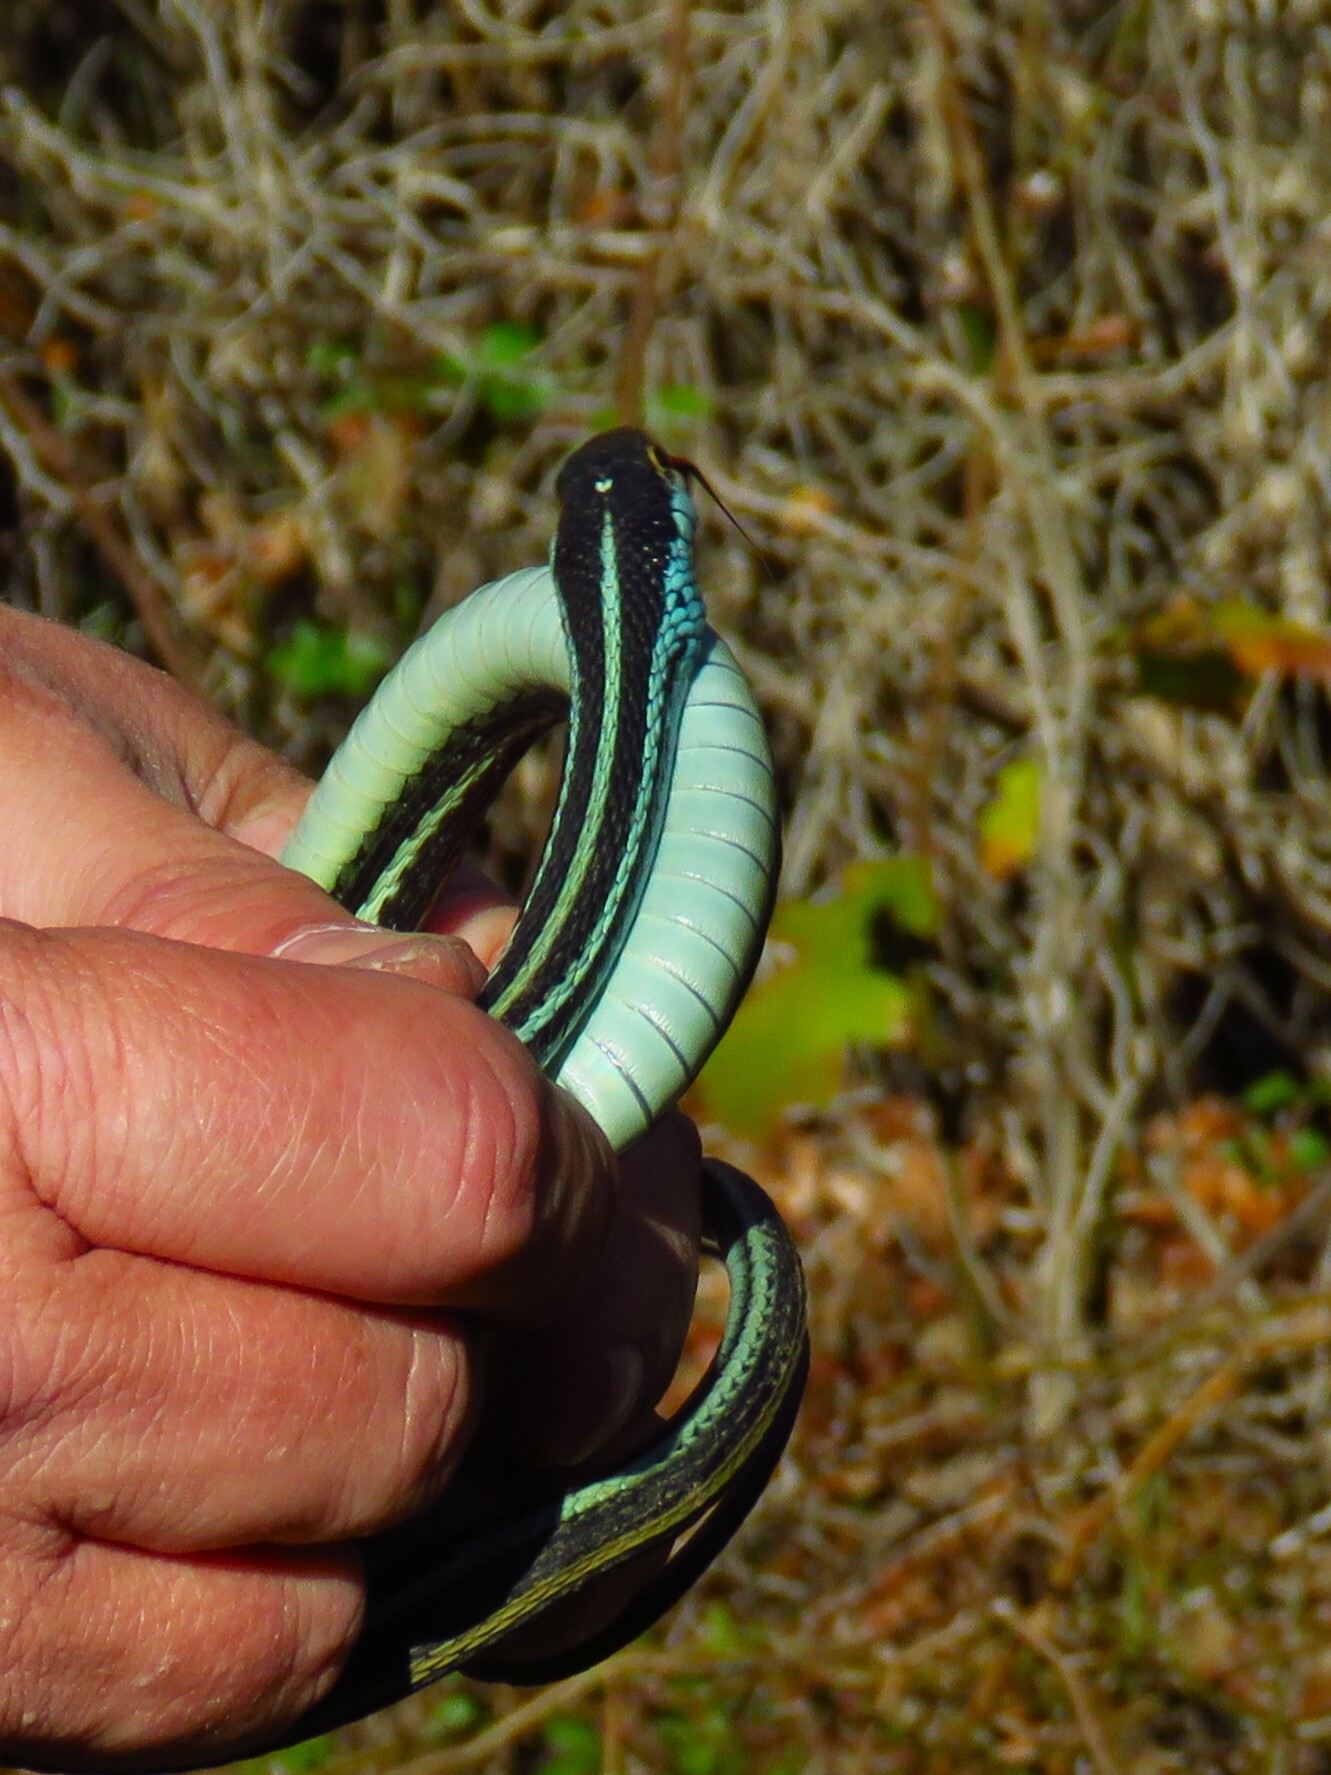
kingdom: Animalia
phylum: Chordata
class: Squamata
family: Colubridae
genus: Thamnophis
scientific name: Thamnophis proximus
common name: Western ribbon snake
